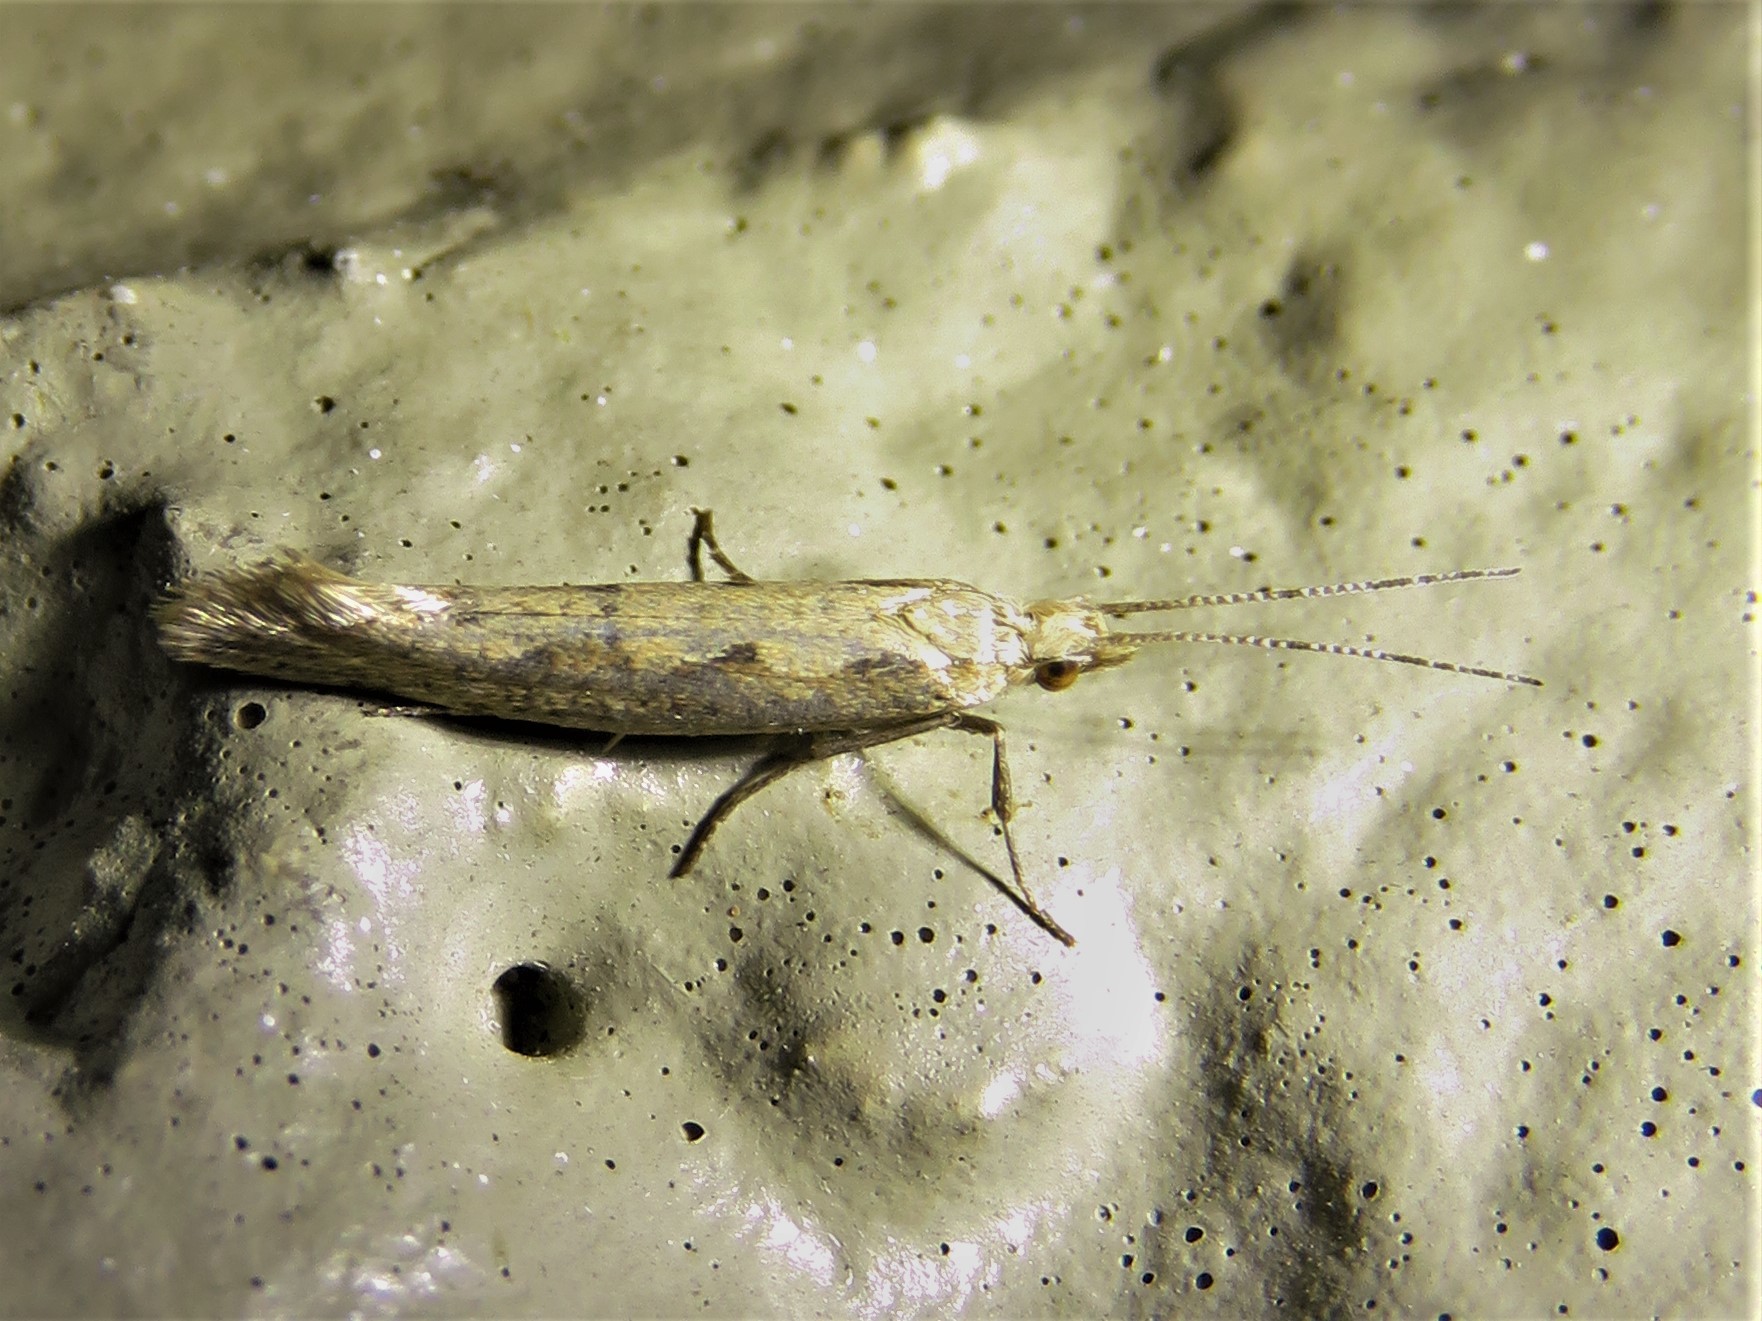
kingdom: Animalia
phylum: Arthropoda
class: Insecta
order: Lepidoptera
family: Plutellidae
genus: Plutella
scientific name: Plutella xylostella
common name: Diamond-back moth
